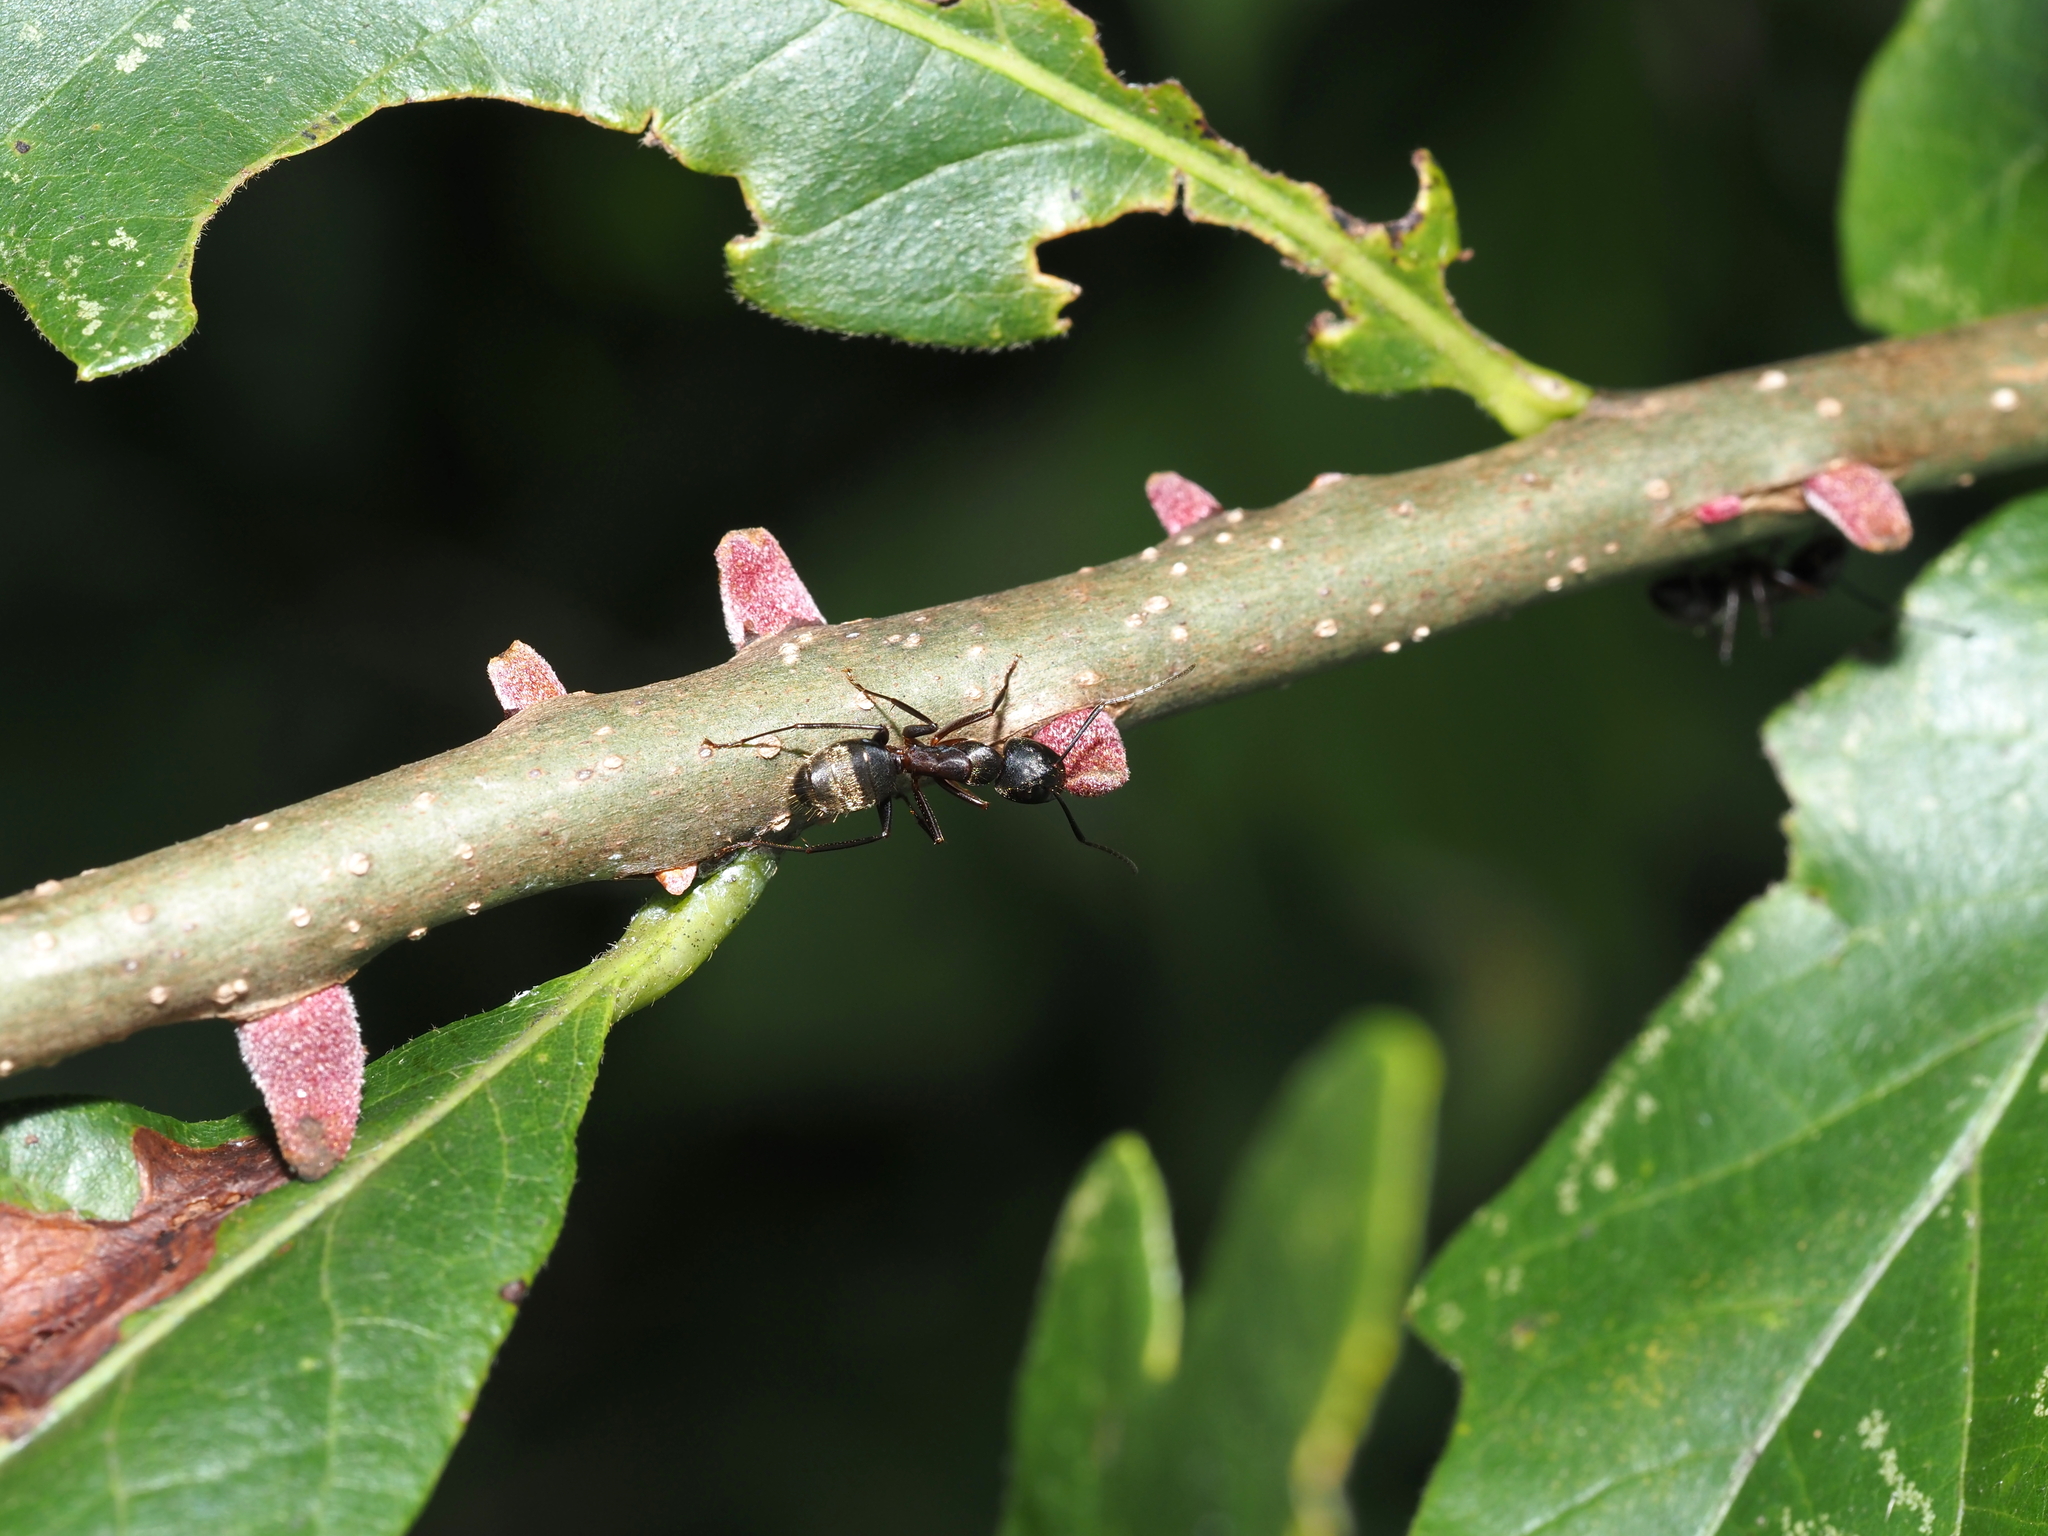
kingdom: Animalia
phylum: Arthropoda
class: Insecta
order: Hymenoptera
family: Cynipidae
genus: Disholcaspis
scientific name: Disholcaspis
